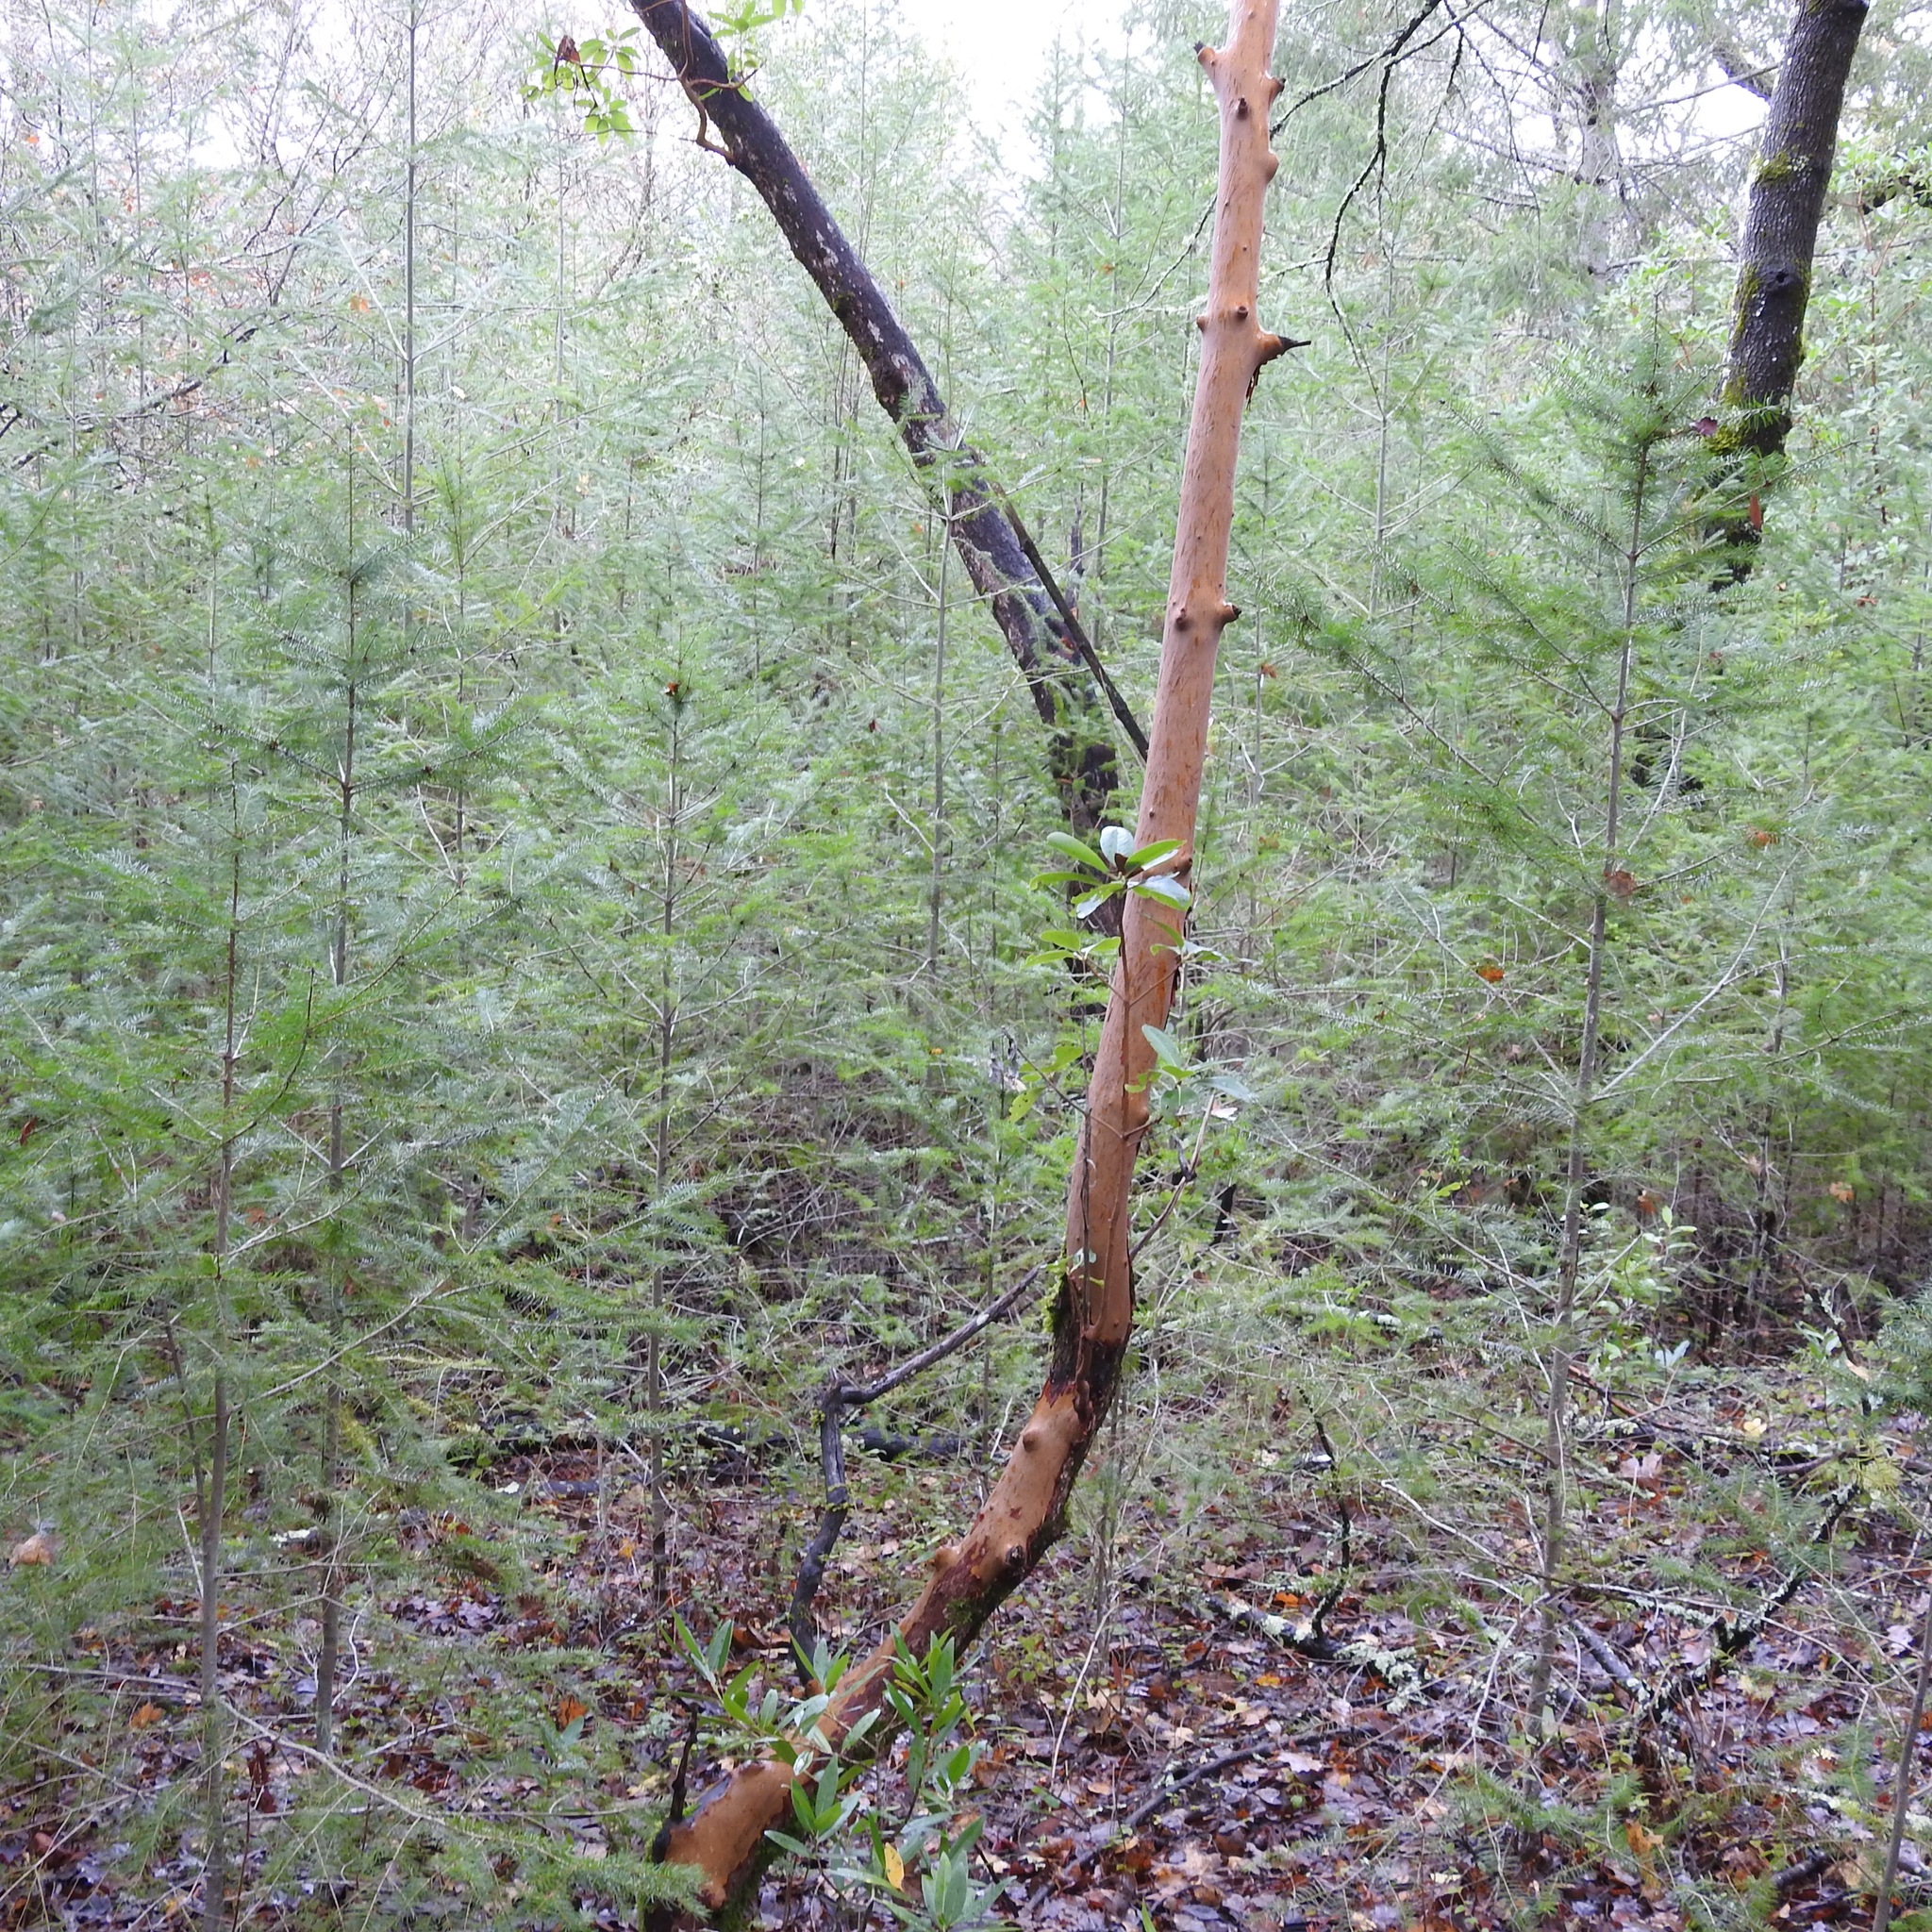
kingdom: Plantae
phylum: Tracheophyta
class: Magnoliopsida
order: Ericales
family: Ericaceae
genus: Arbutus
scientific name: Arbutus menziesii
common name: Pacific madrone
